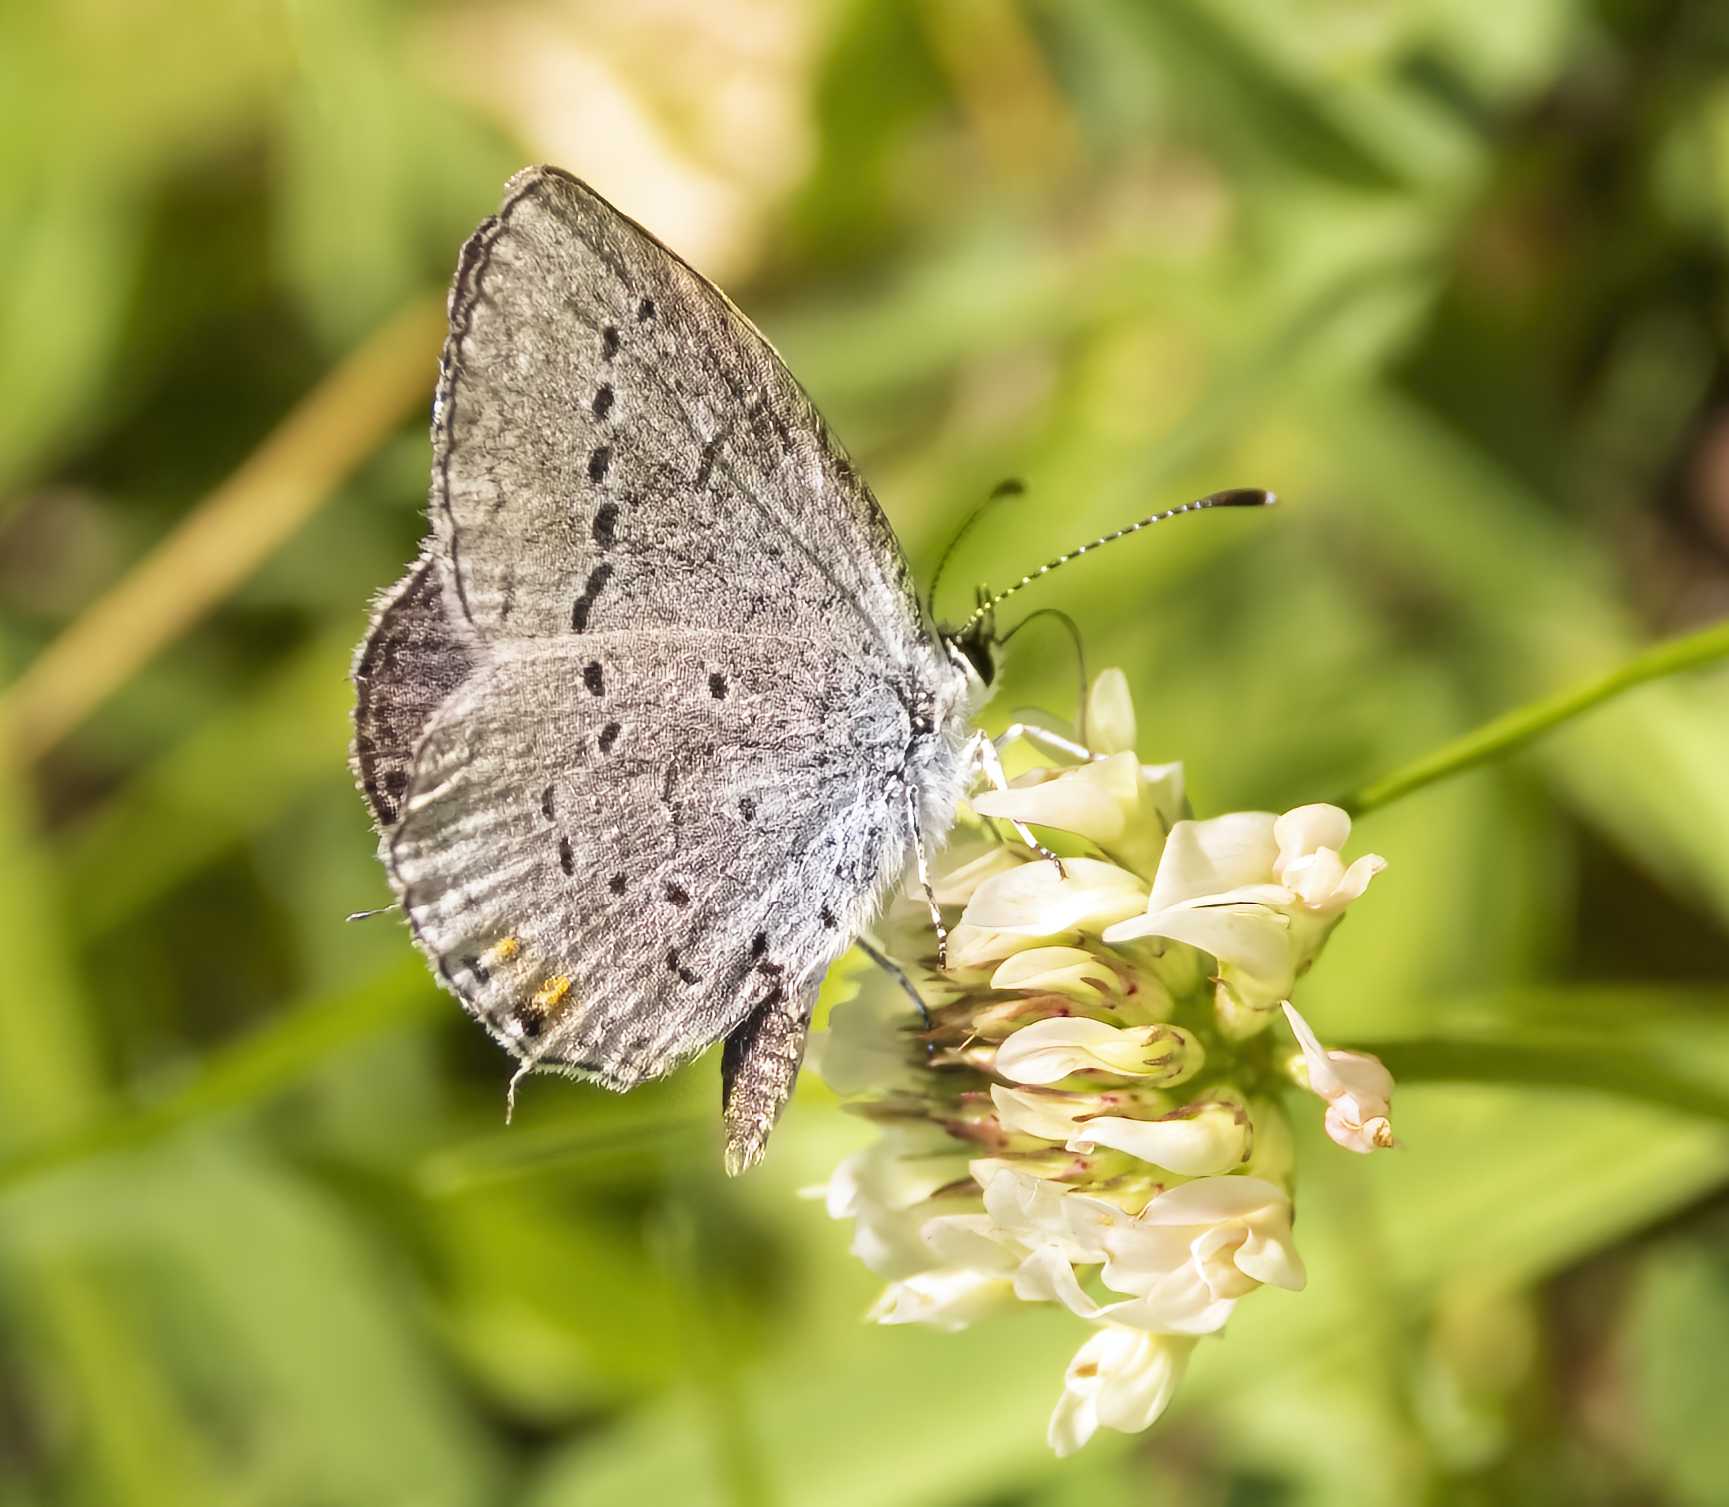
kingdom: Animalia
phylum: Arthropoda
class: Insecta
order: Lepidoptera
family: Lycaenidae
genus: Elkalyce
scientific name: Elkalyce comyntas
